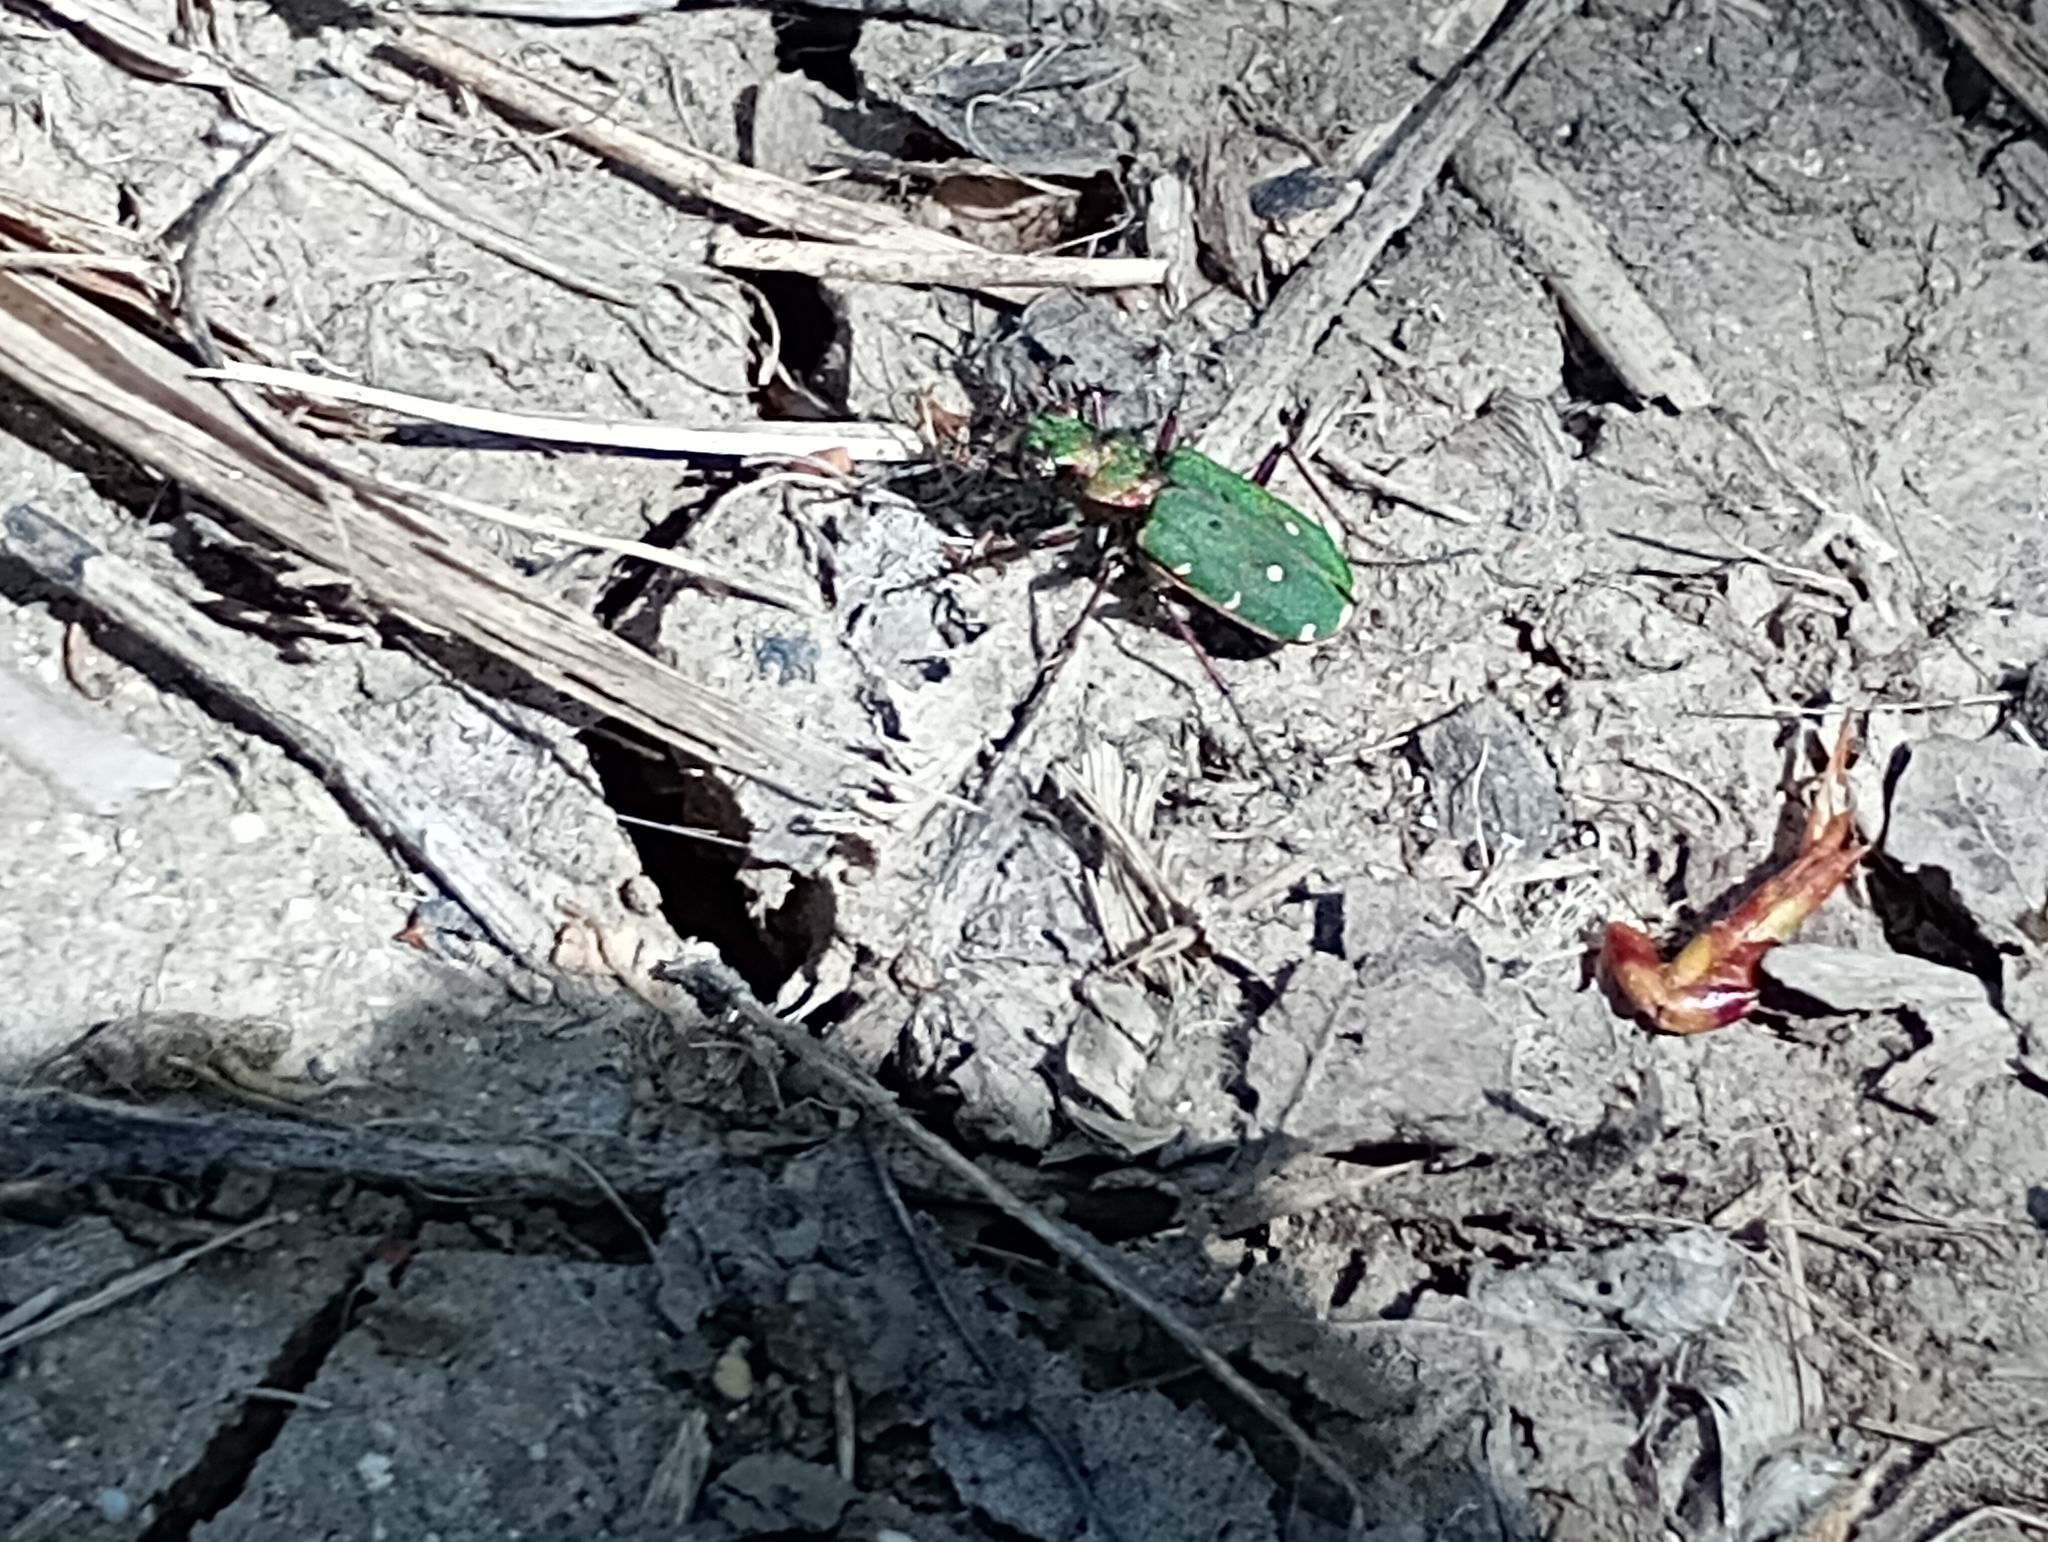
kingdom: Animalia
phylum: Arthropoda
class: Insecta
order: Coleoptera
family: Carabidae
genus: Cicindela
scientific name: Cicindela campestris
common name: Common tiger beetle
